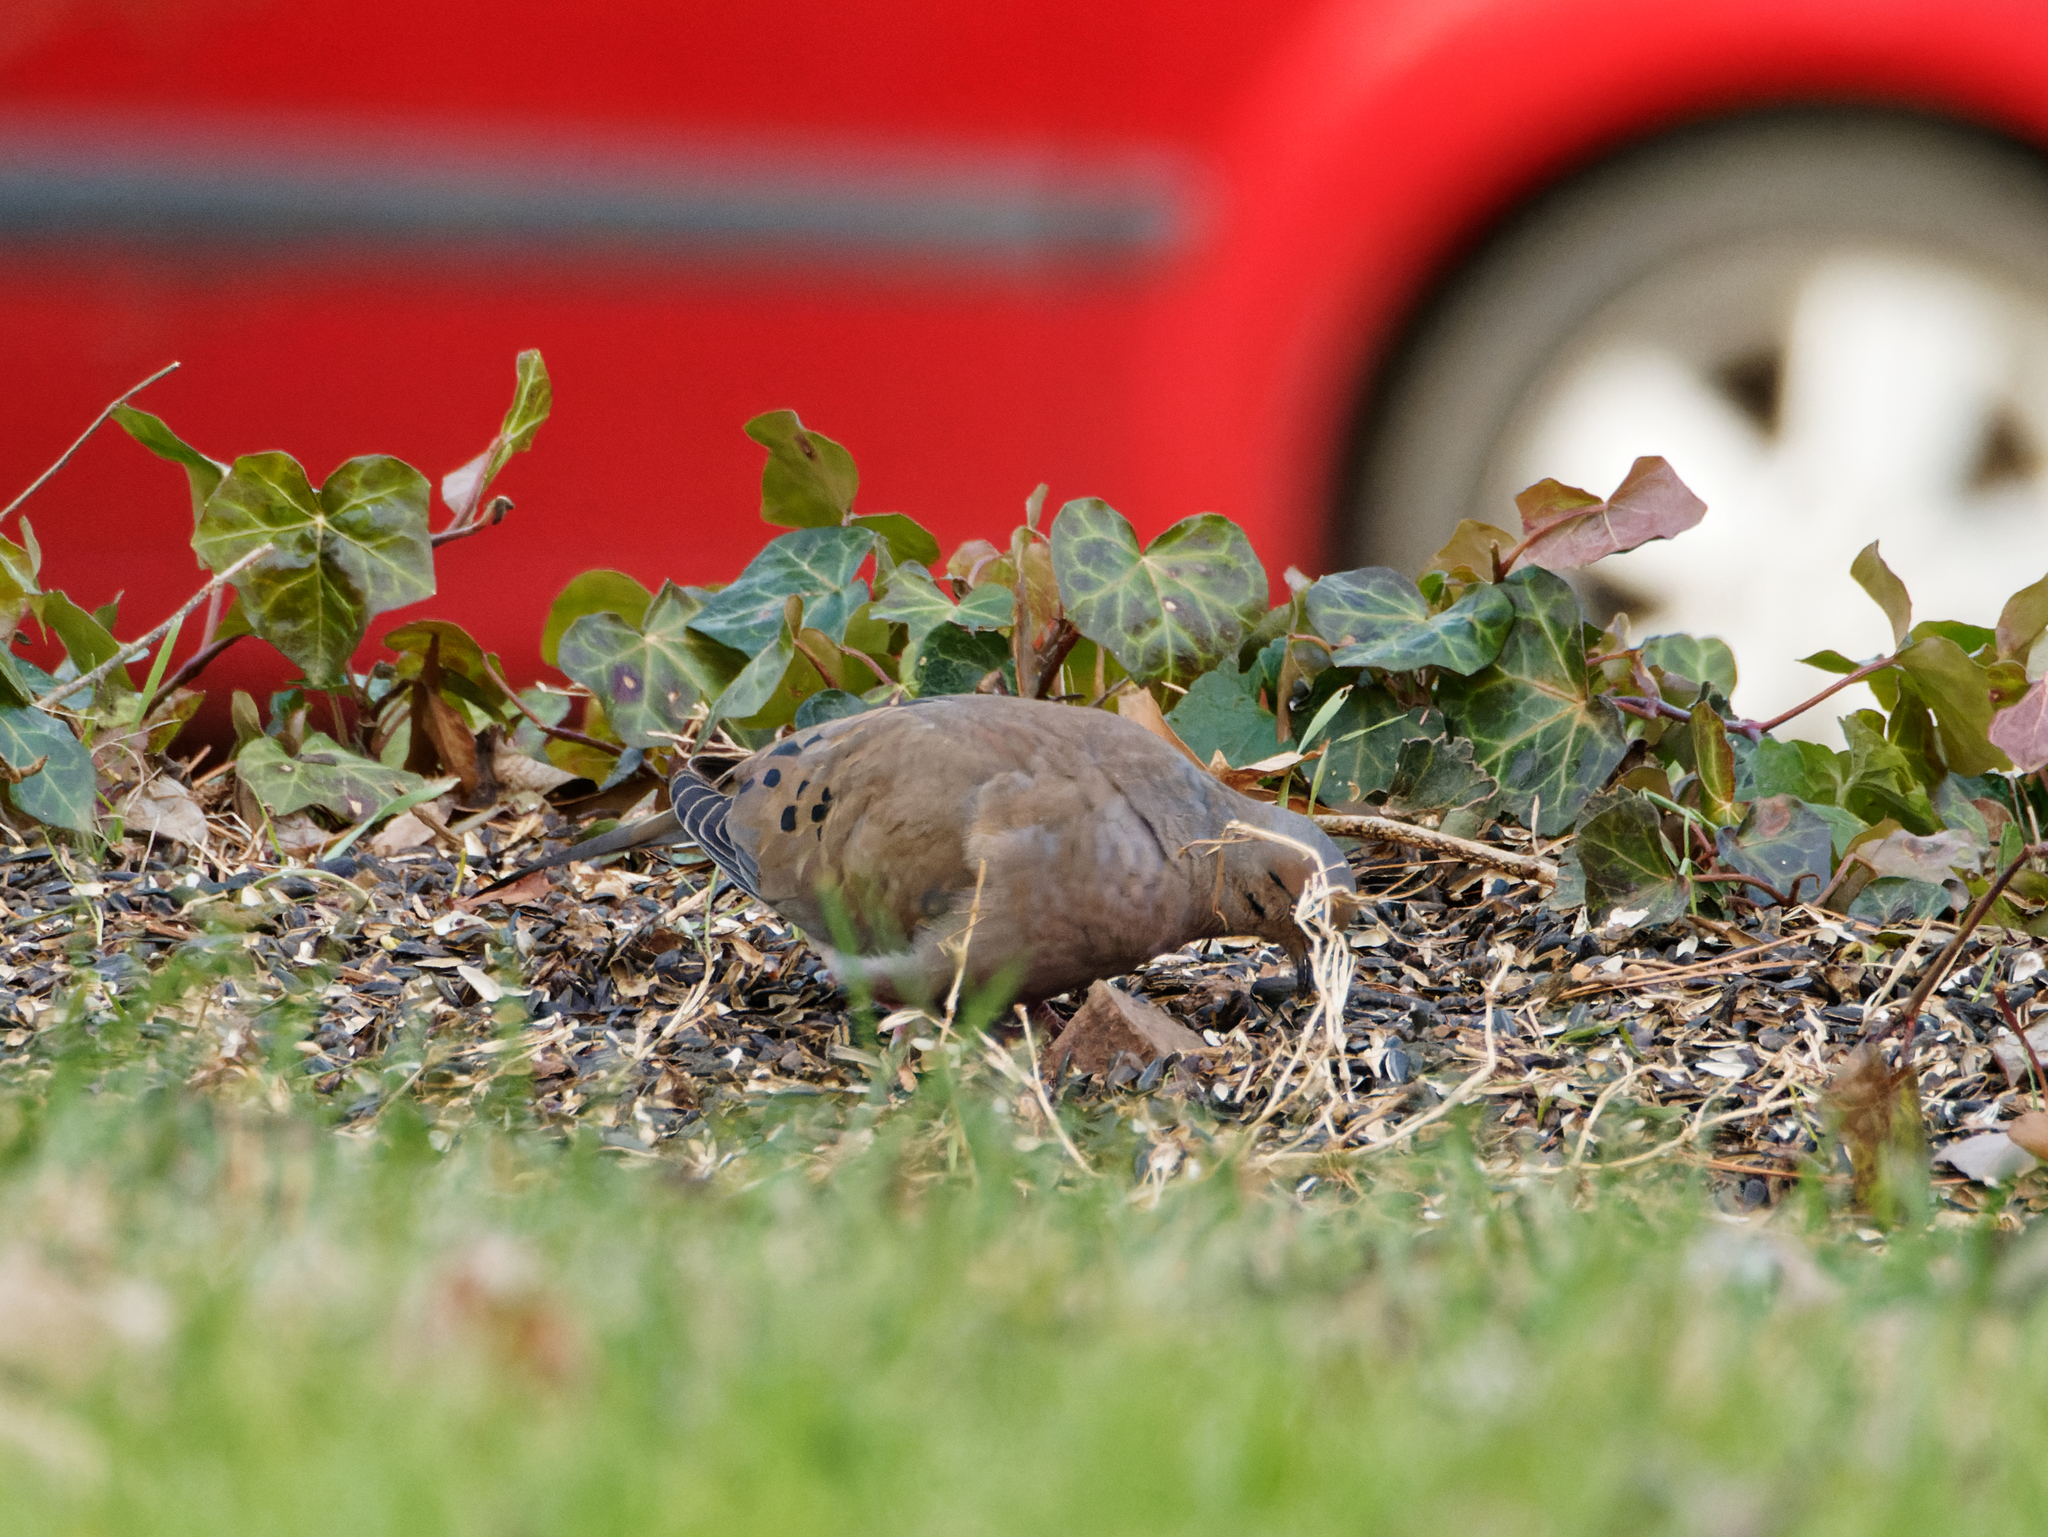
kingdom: Animalia
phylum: Chordata
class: Aves
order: Columbiformes
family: Columbidae
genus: Zenaida
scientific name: Zenaida macroura
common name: Mourning dove
